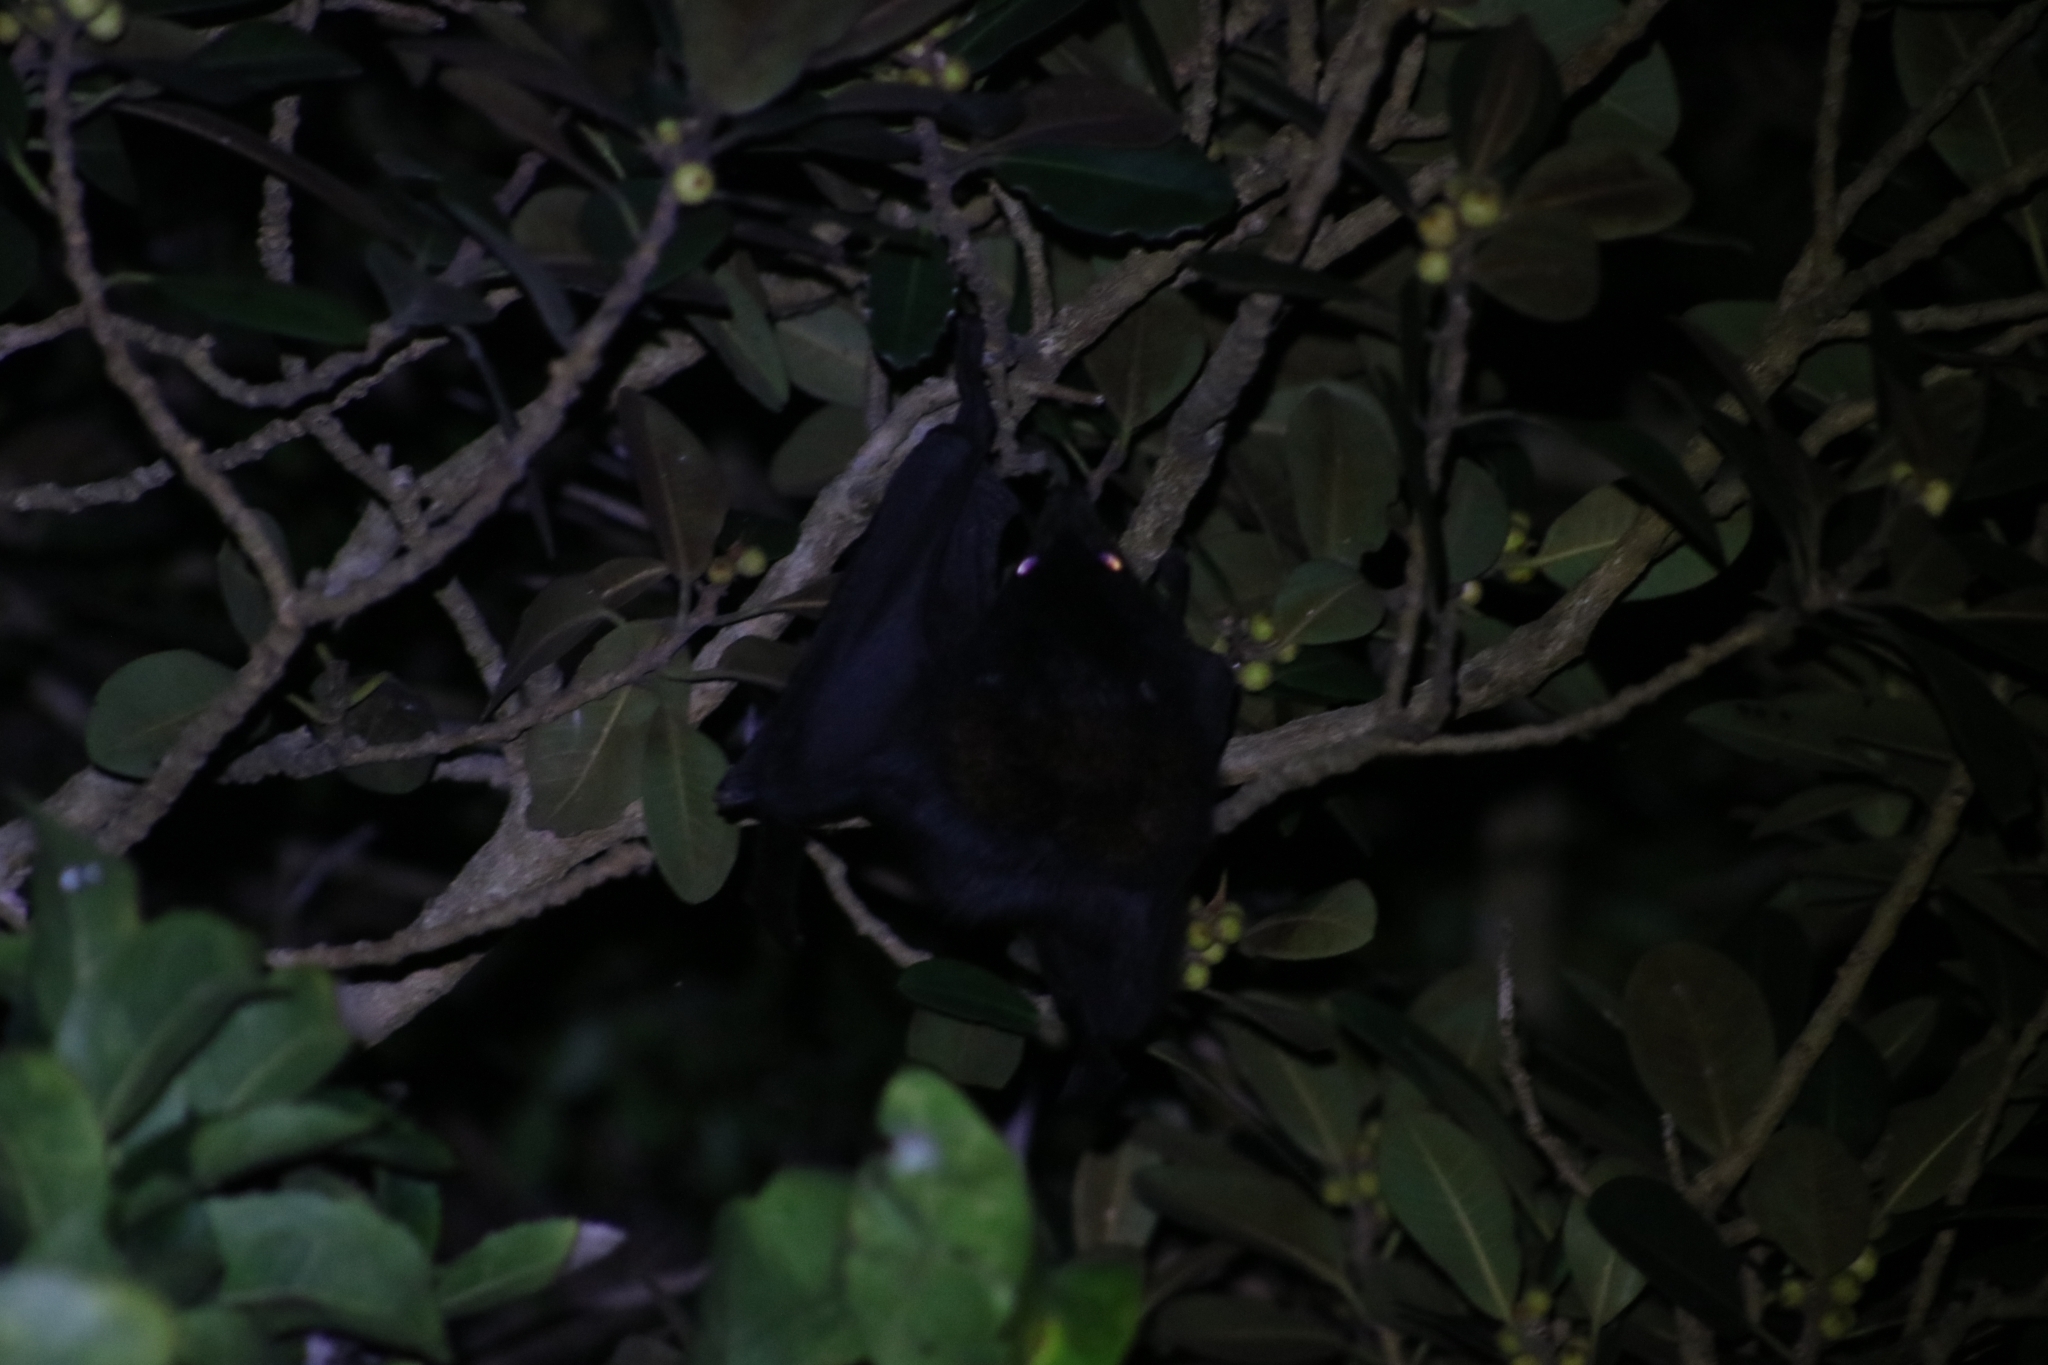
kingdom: Animalia
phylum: Chordata
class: Mammalia
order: Chiroptera
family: Pteropodidae
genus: Pteropus
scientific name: Pteropus alecto
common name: Black flying fox
